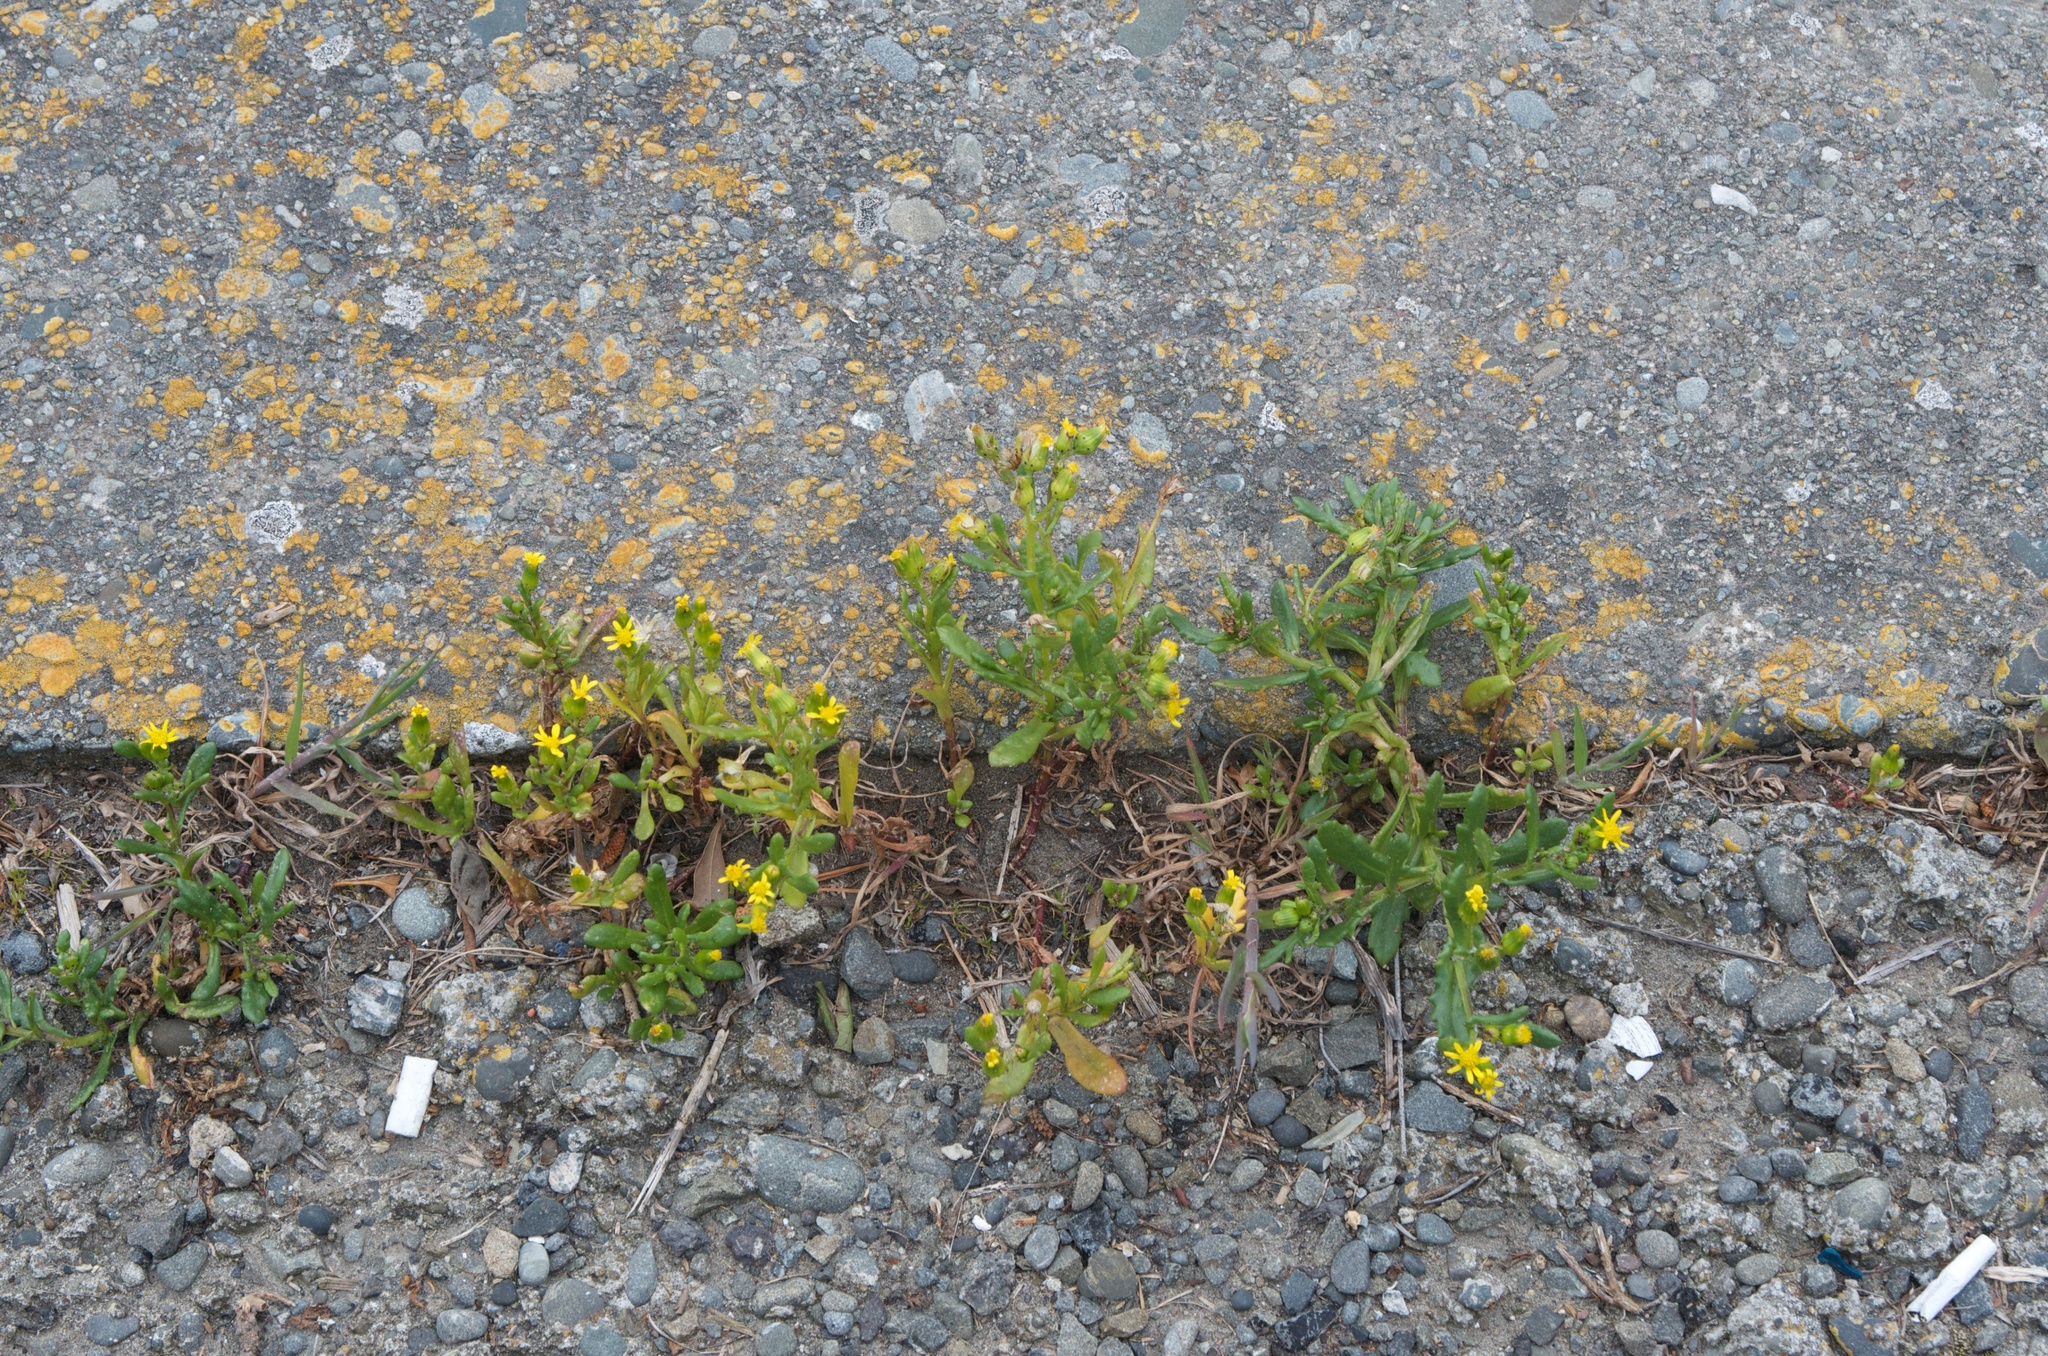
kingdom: Plantae
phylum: Tracheophyta
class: Magnoliopsida
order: Asterales
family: Asteraceae
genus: Senecio
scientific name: Senecio lautus
